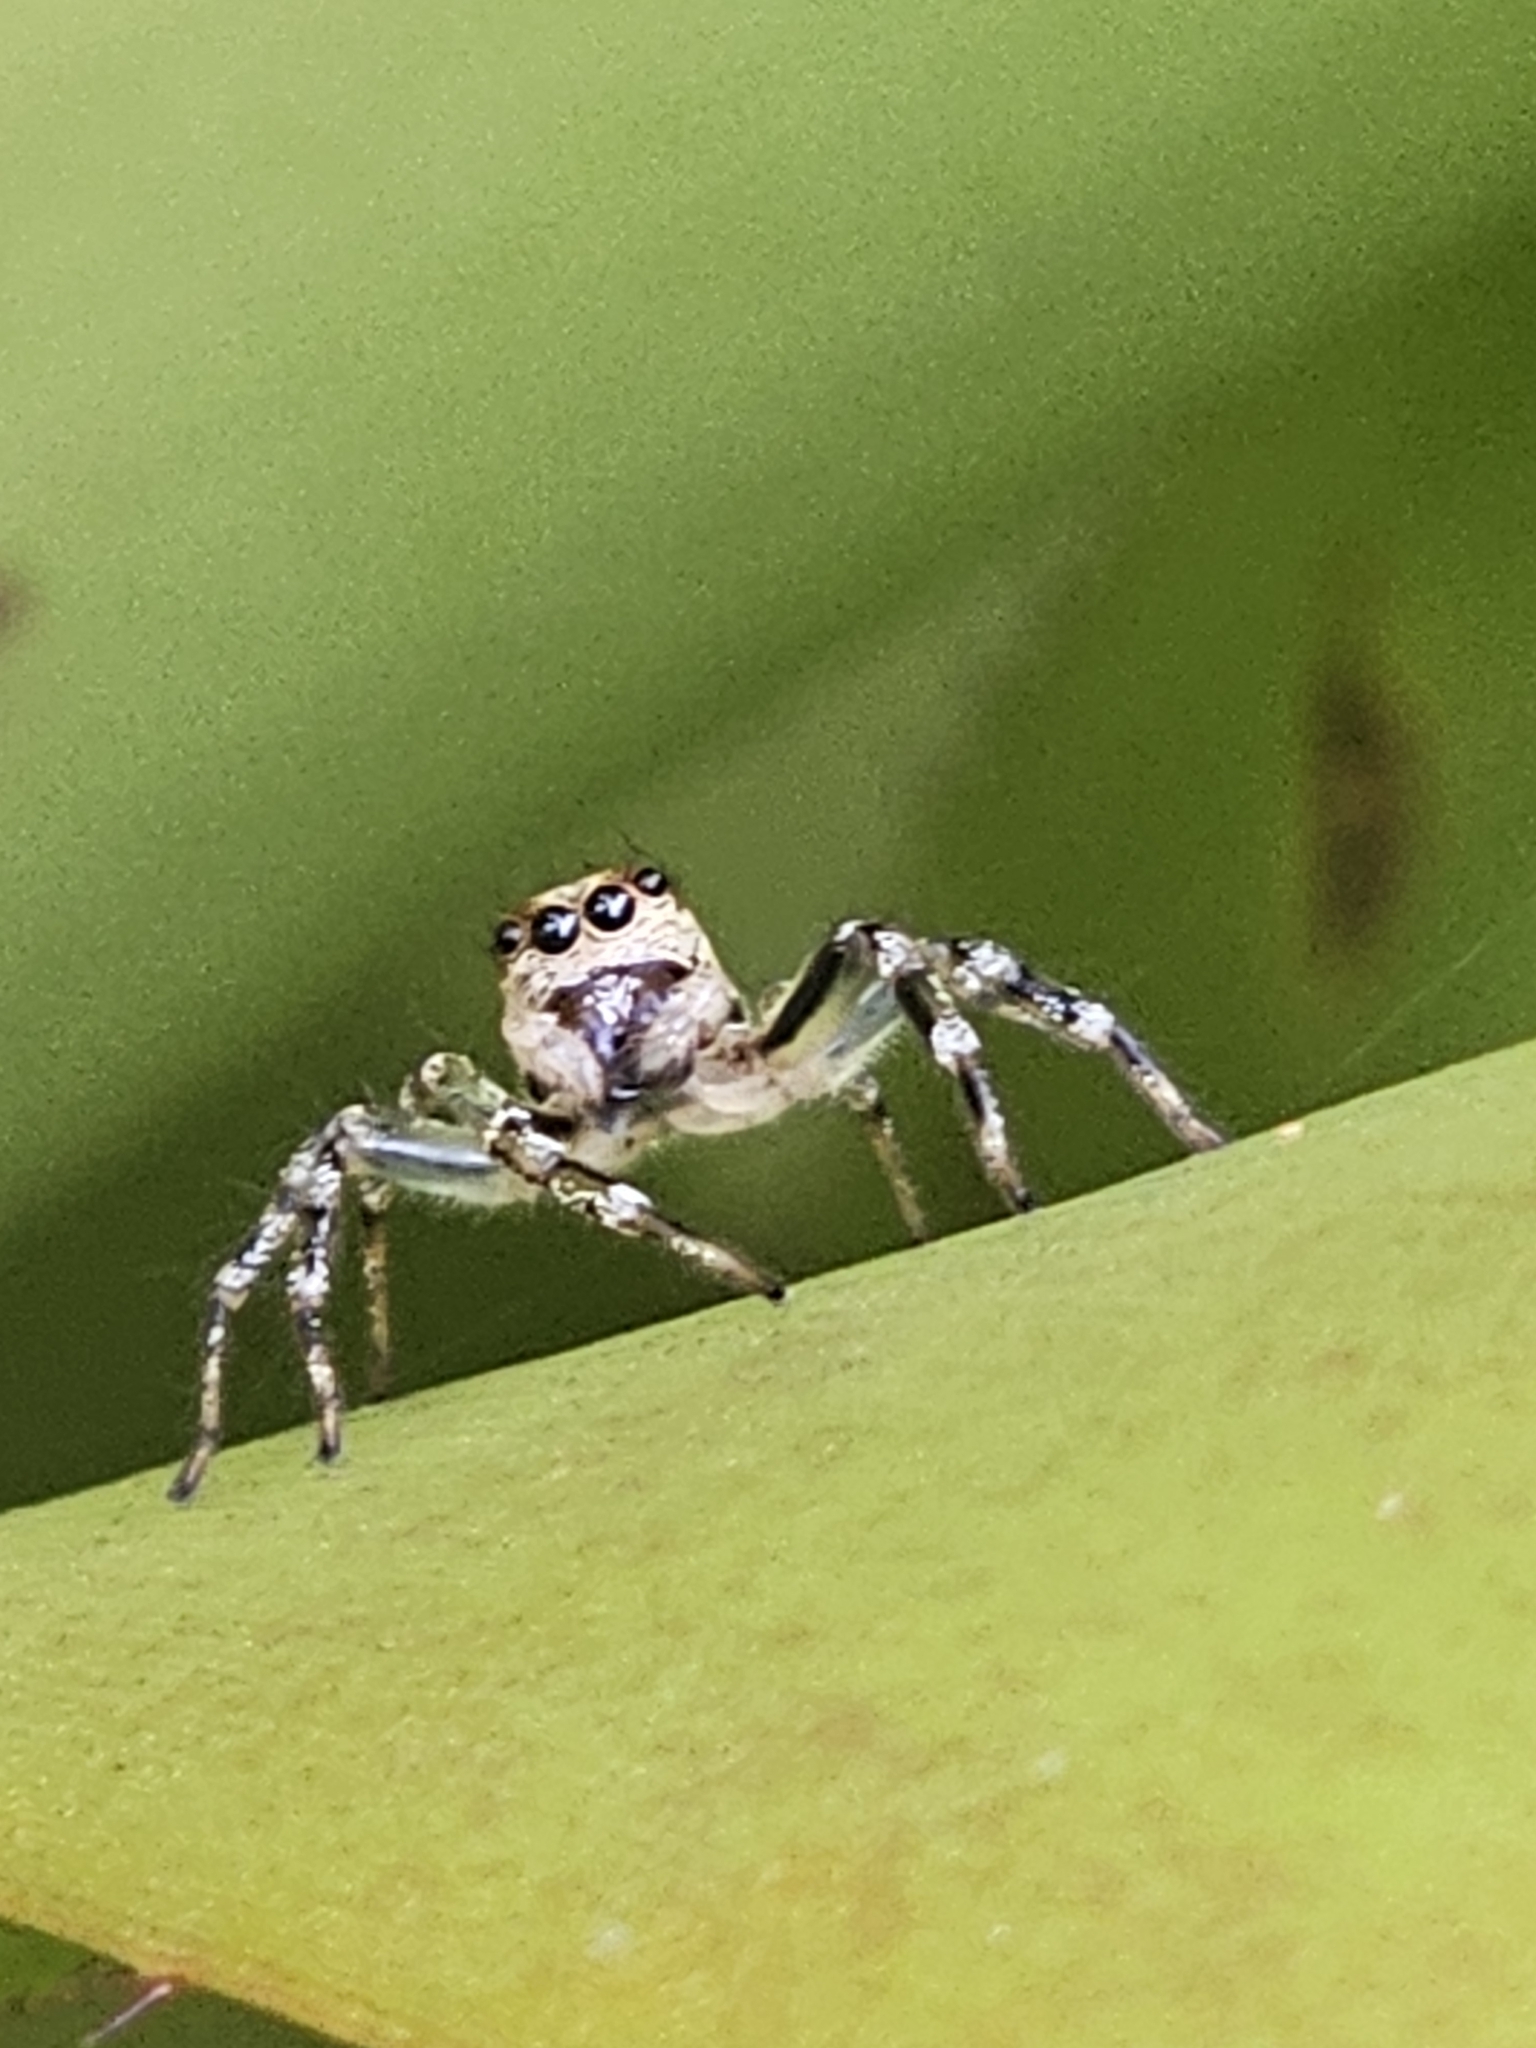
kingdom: Animalia
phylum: Arthropoda
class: Arachnida
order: Araneae
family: Salticidae
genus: Zenodorus
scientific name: Zenodorus swiftorum
